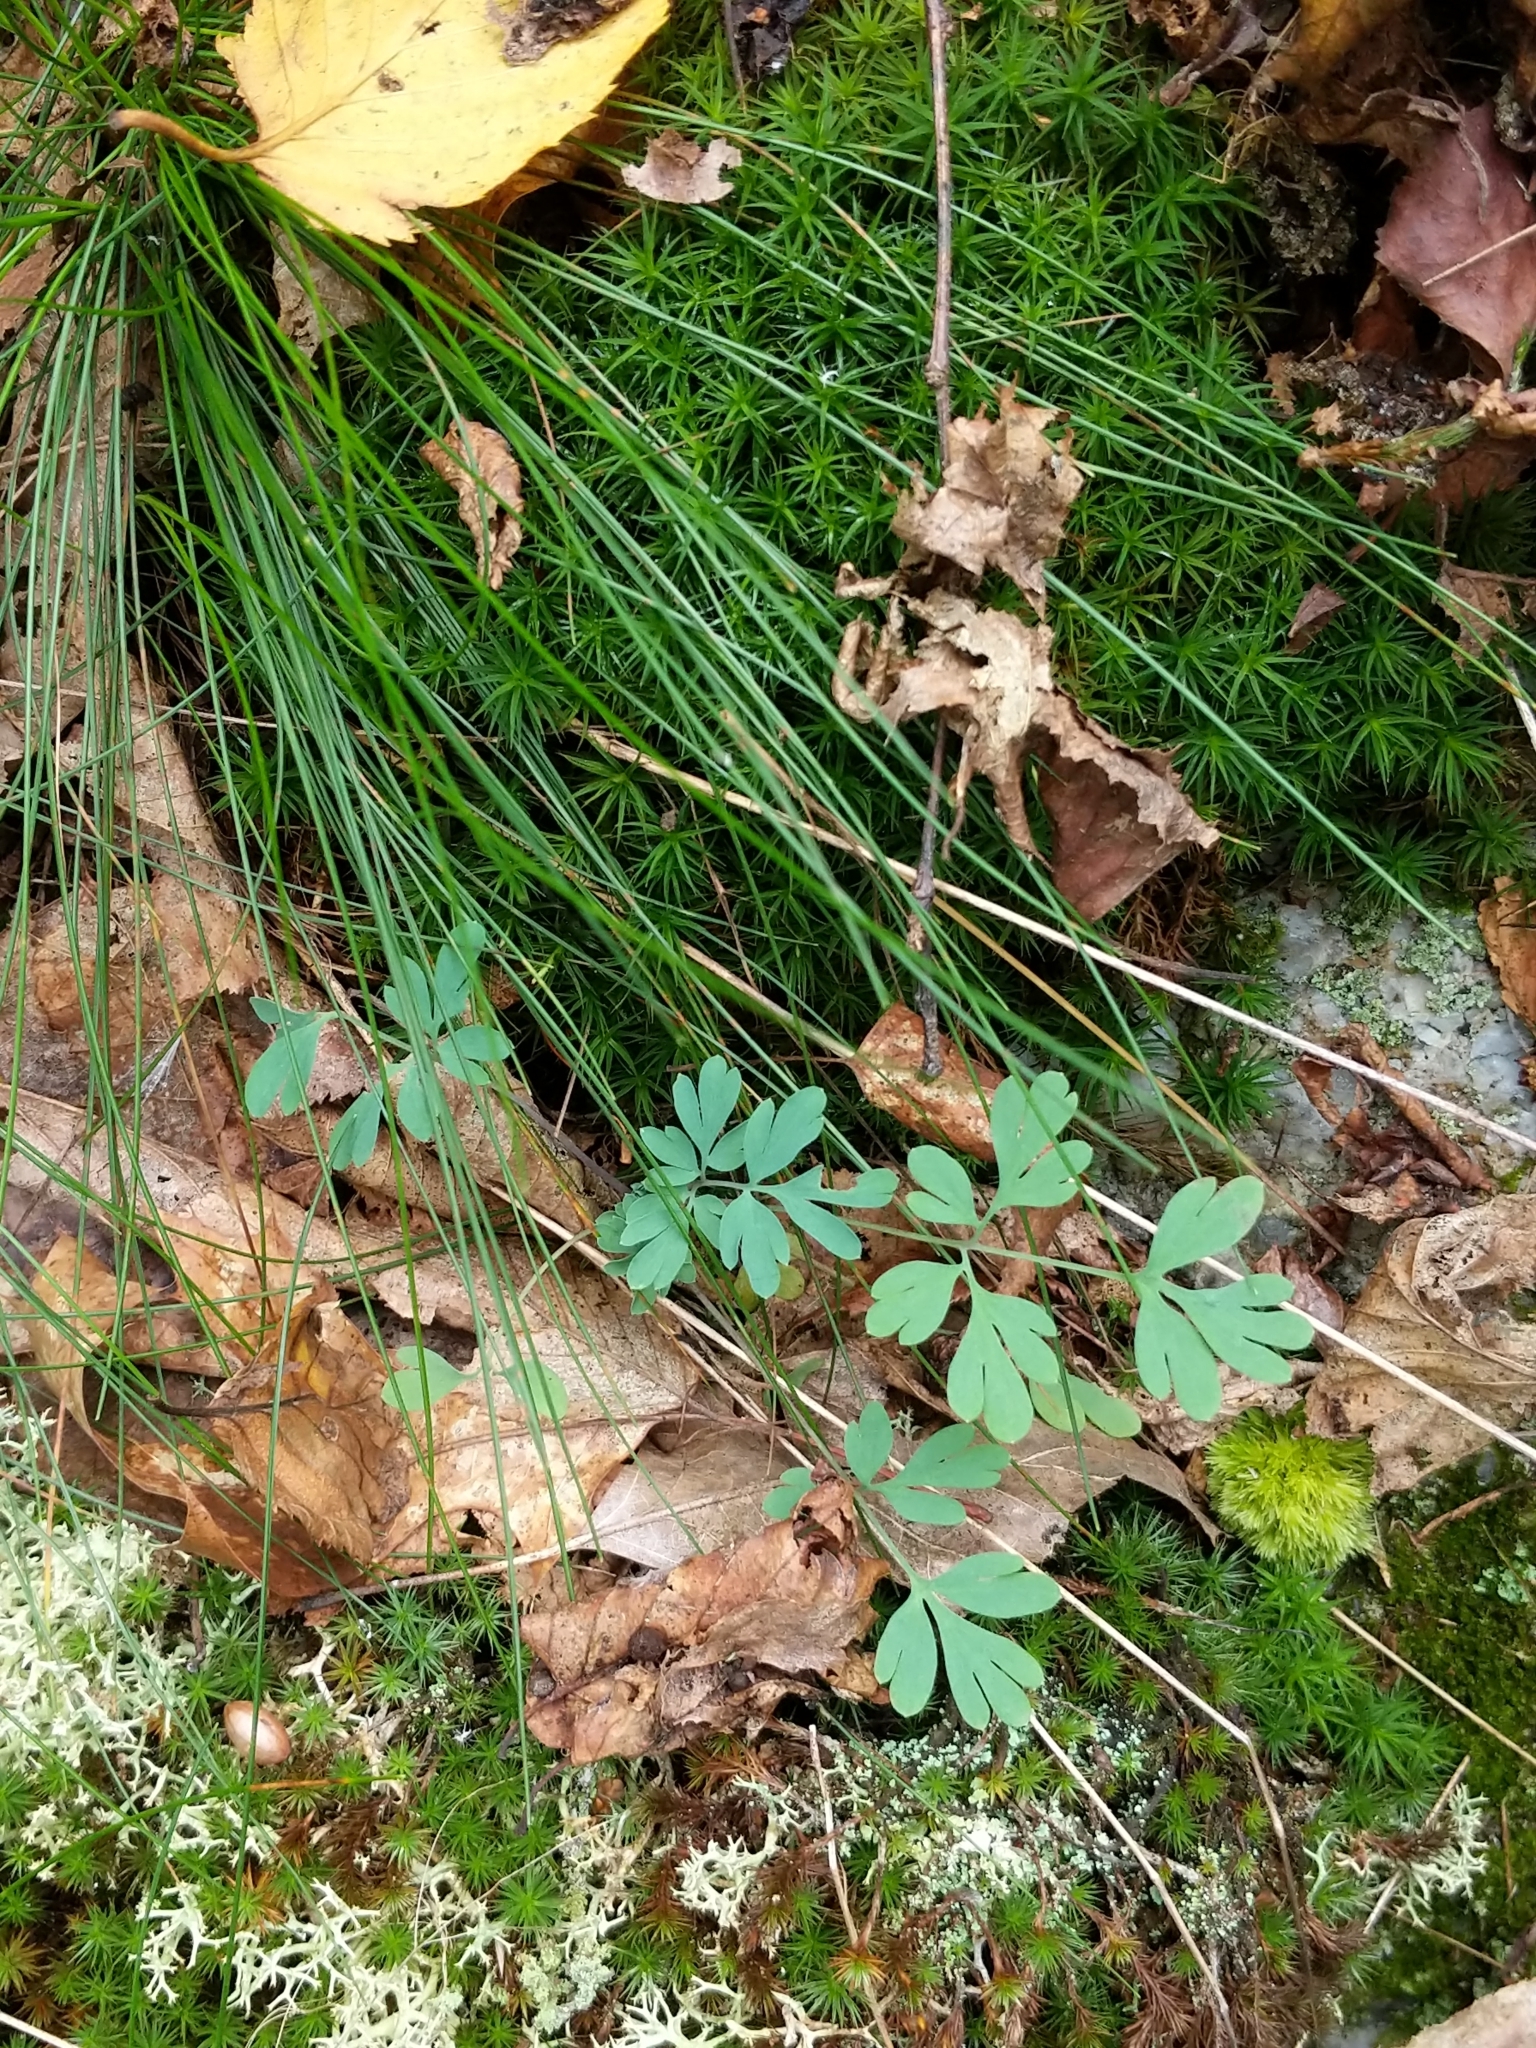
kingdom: Plantae
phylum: Tracheophyta
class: Magnoliopsida
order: Ranunculales
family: Papaveraceae
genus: Capnoides
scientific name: Capnoides sempervirens
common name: Rock harlequin
